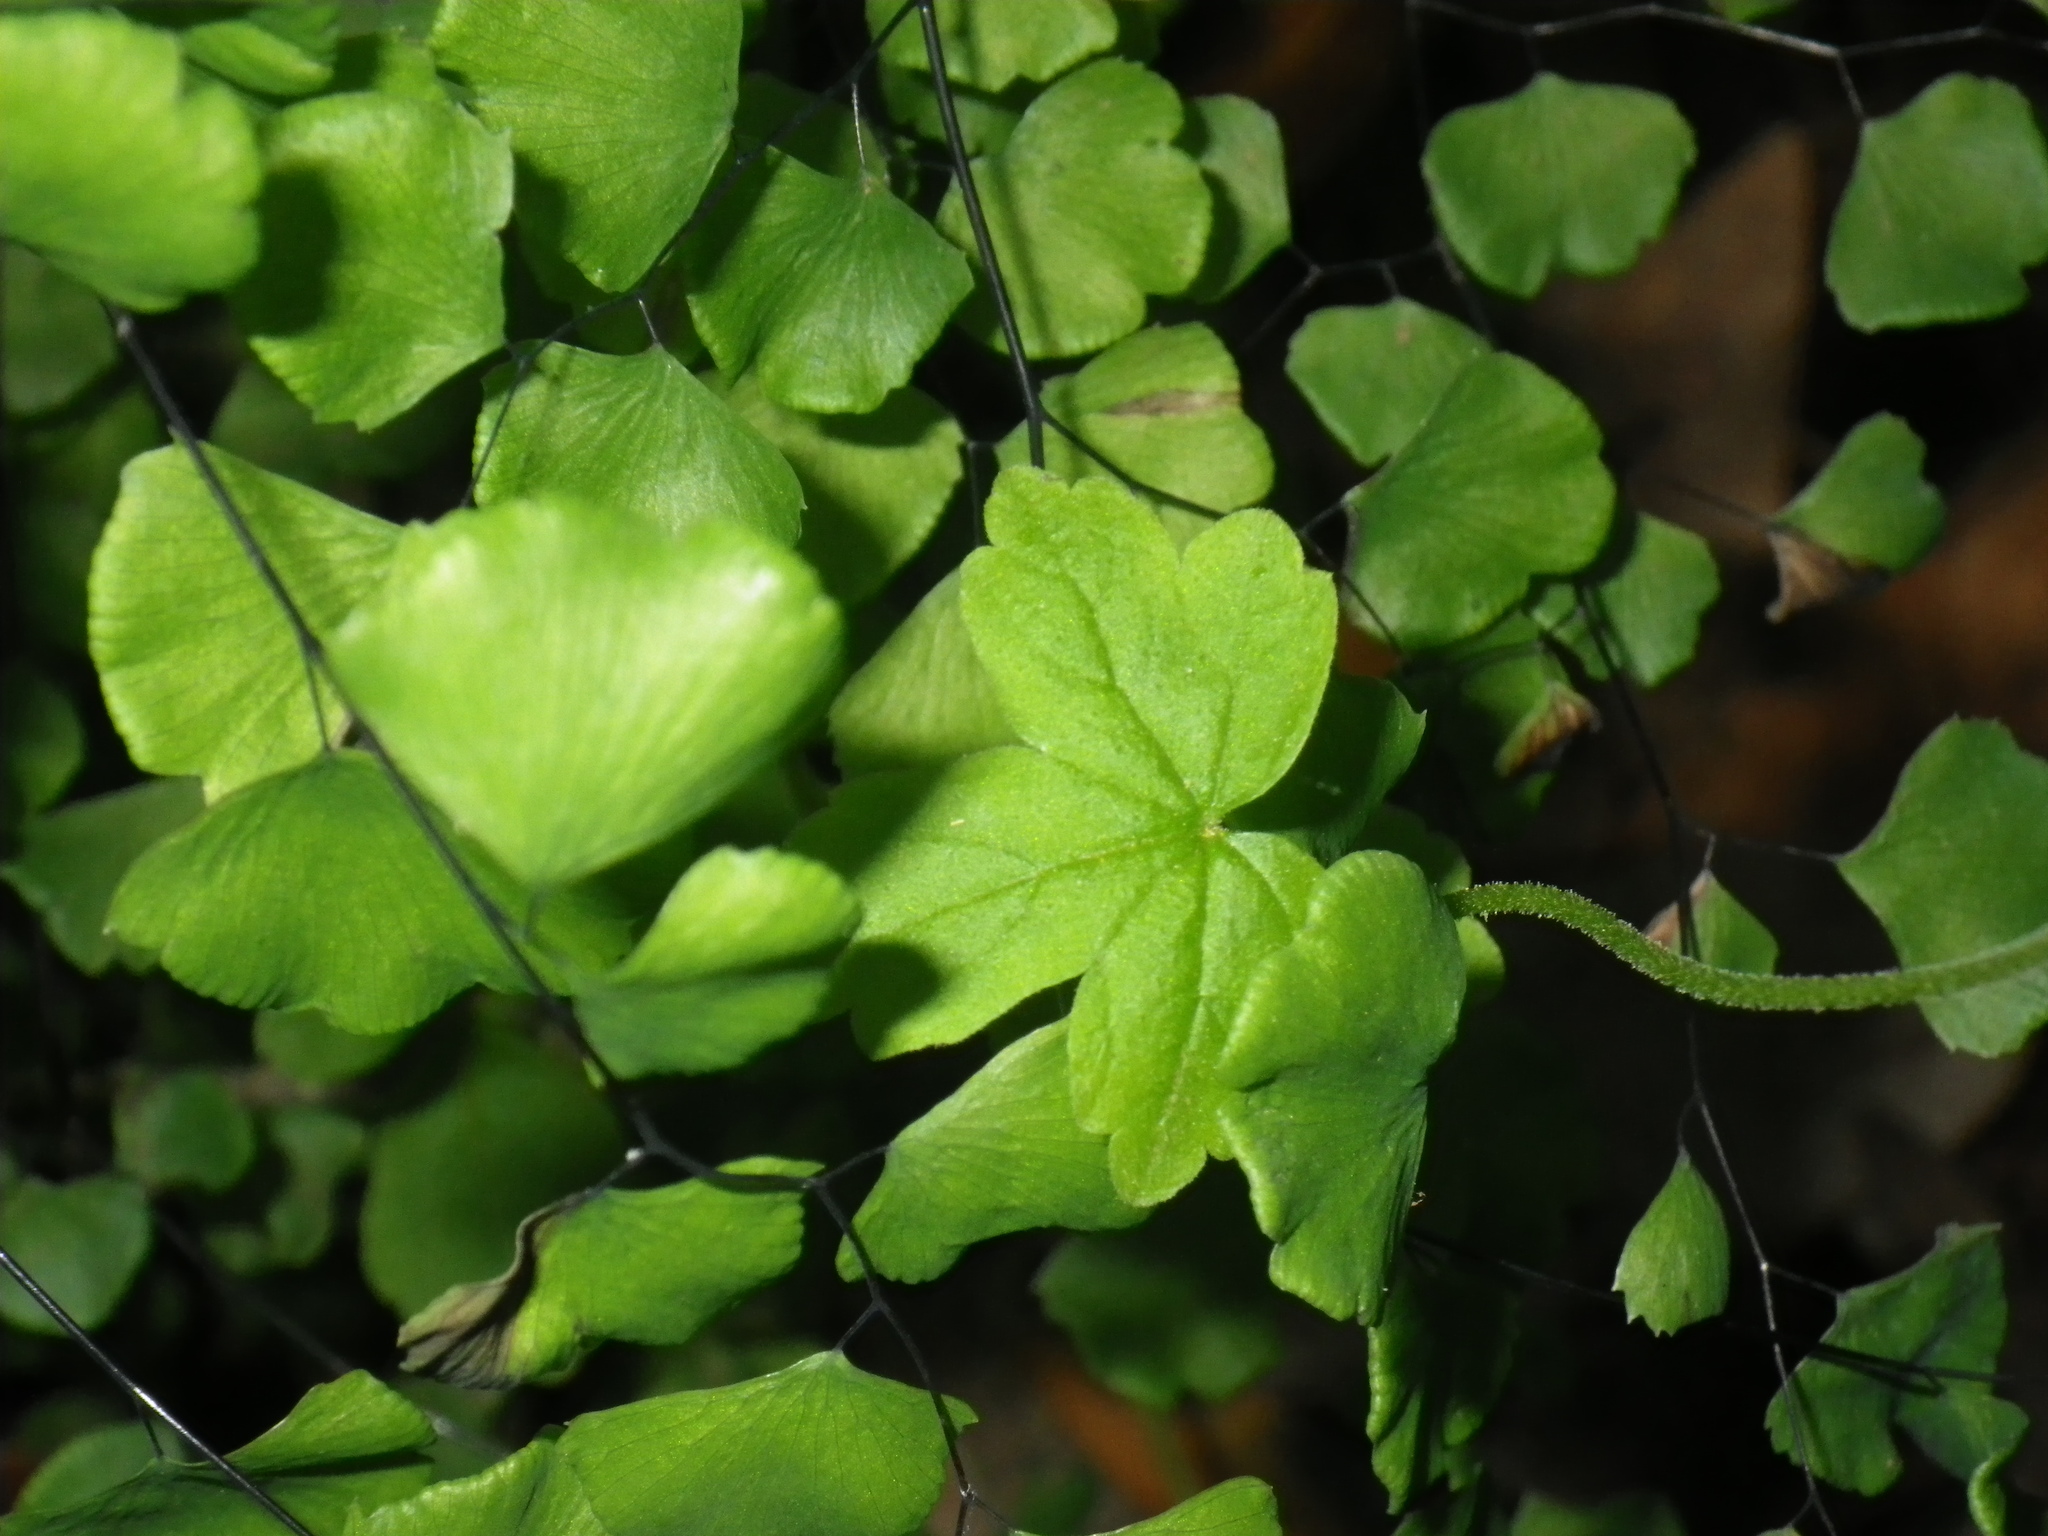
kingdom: Plantae
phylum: Tracheophyta
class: Polypodiopsida
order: Polypodiales
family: Pteridaceae
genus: Adiantum
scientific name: Adiantum jordanii
